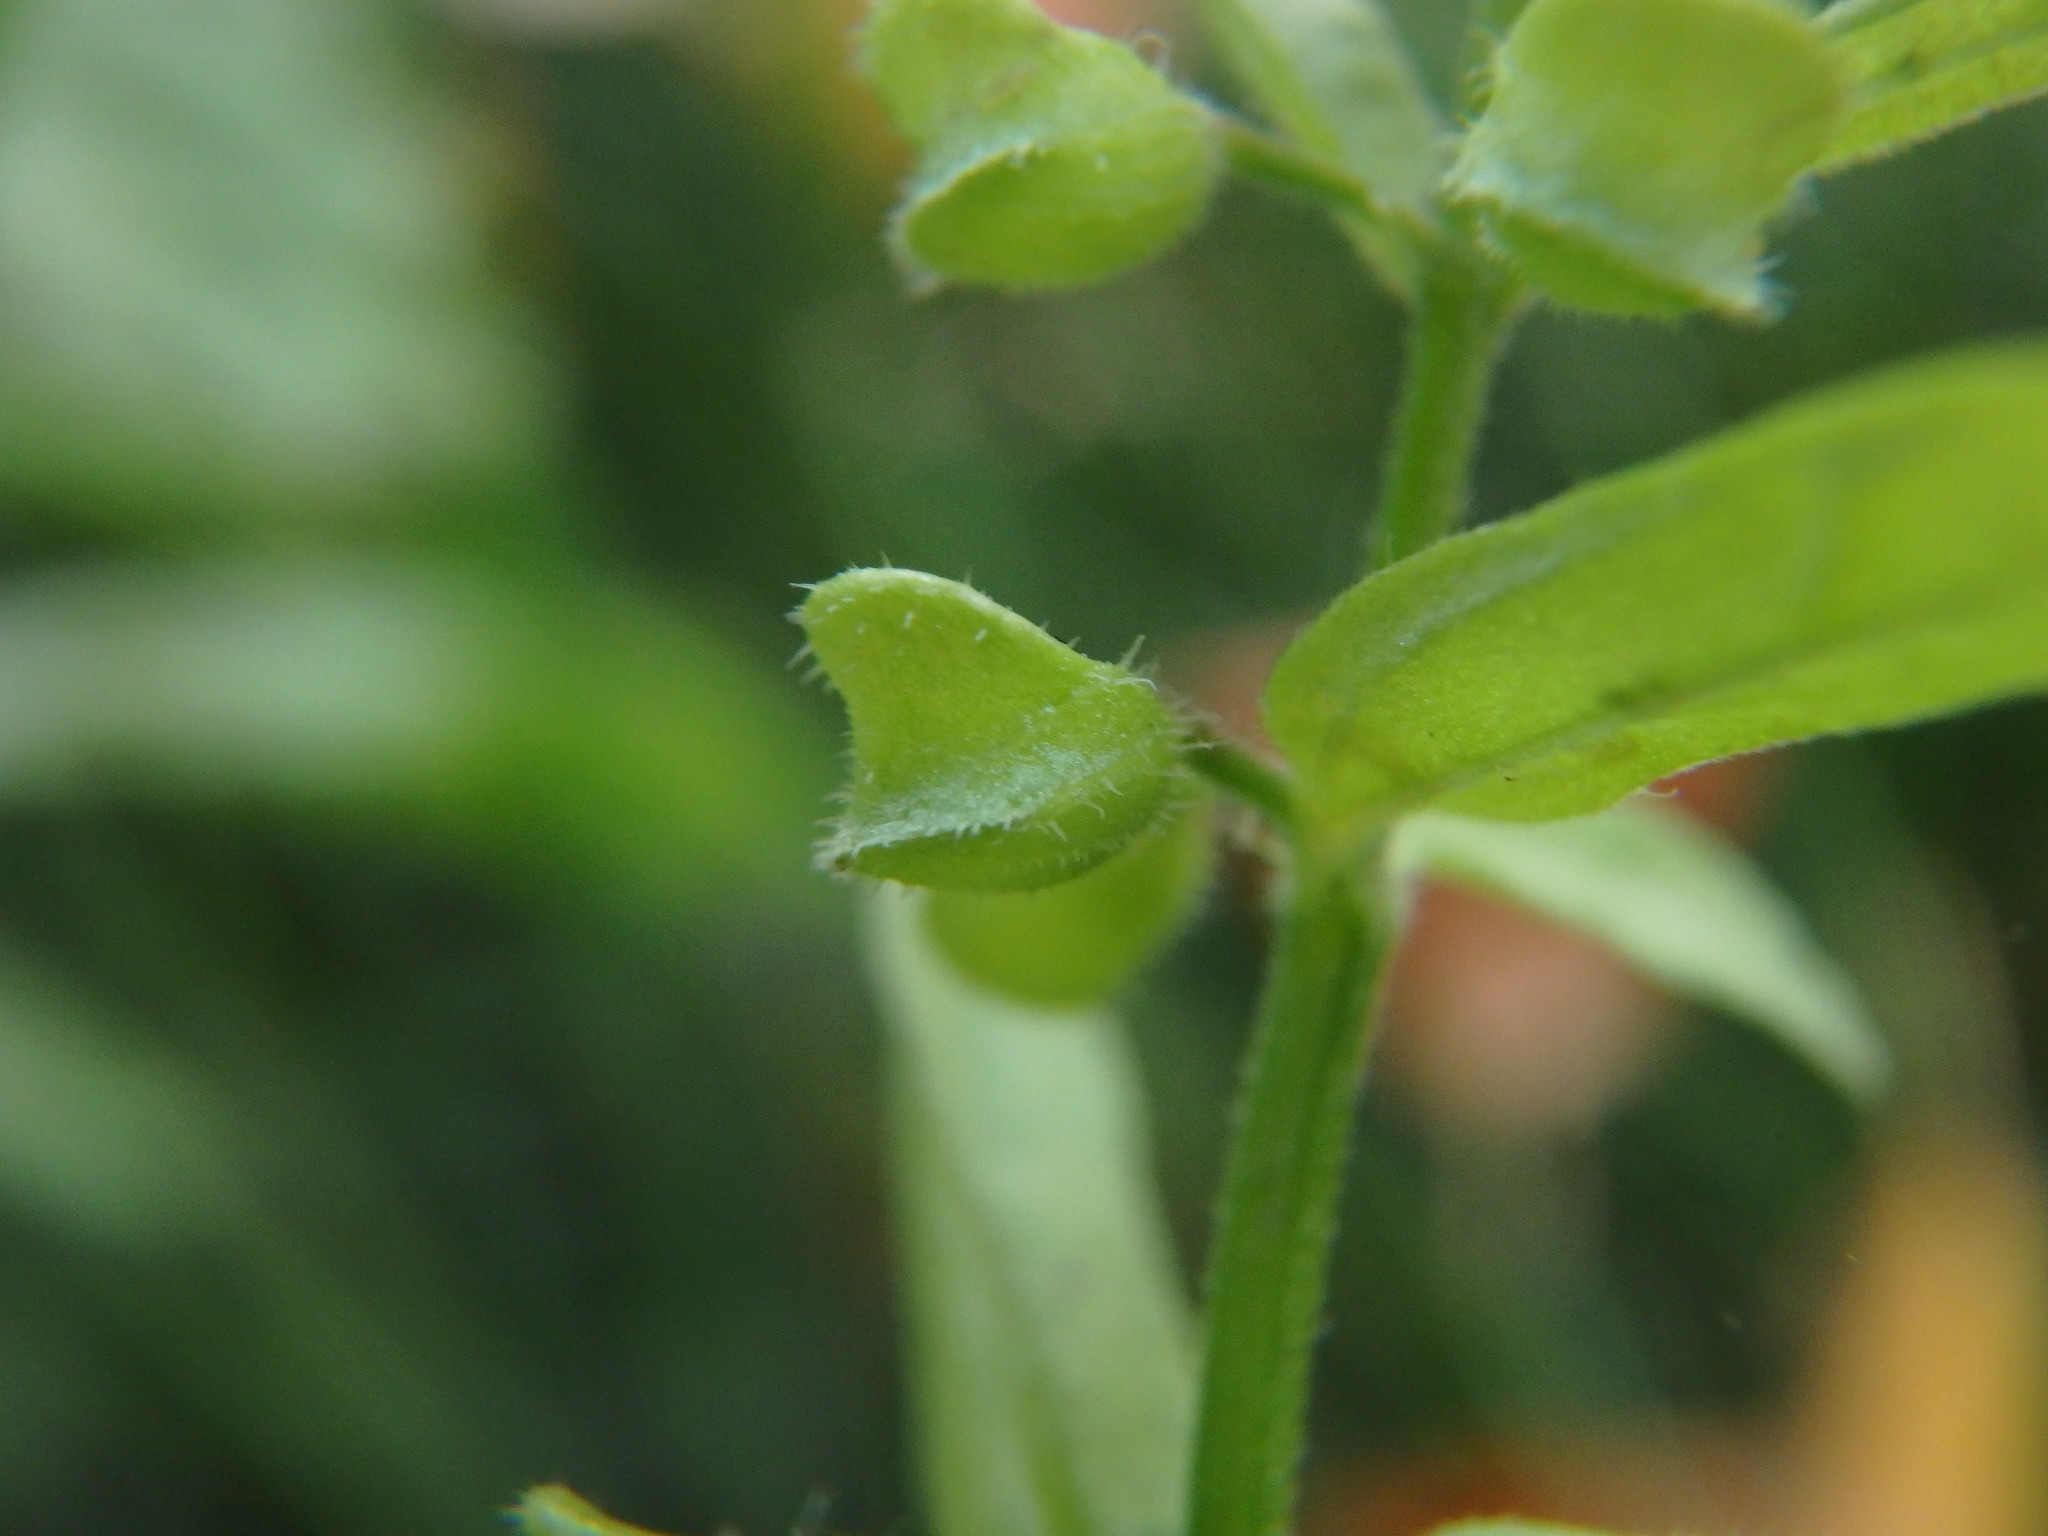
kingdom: Plantae
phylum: Tracheophyta
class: Magnoliopsida
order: Lamiales
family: Lamiaceae
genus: Scutellaria
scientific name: Scutellaria minor
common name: Lesser skullcap
